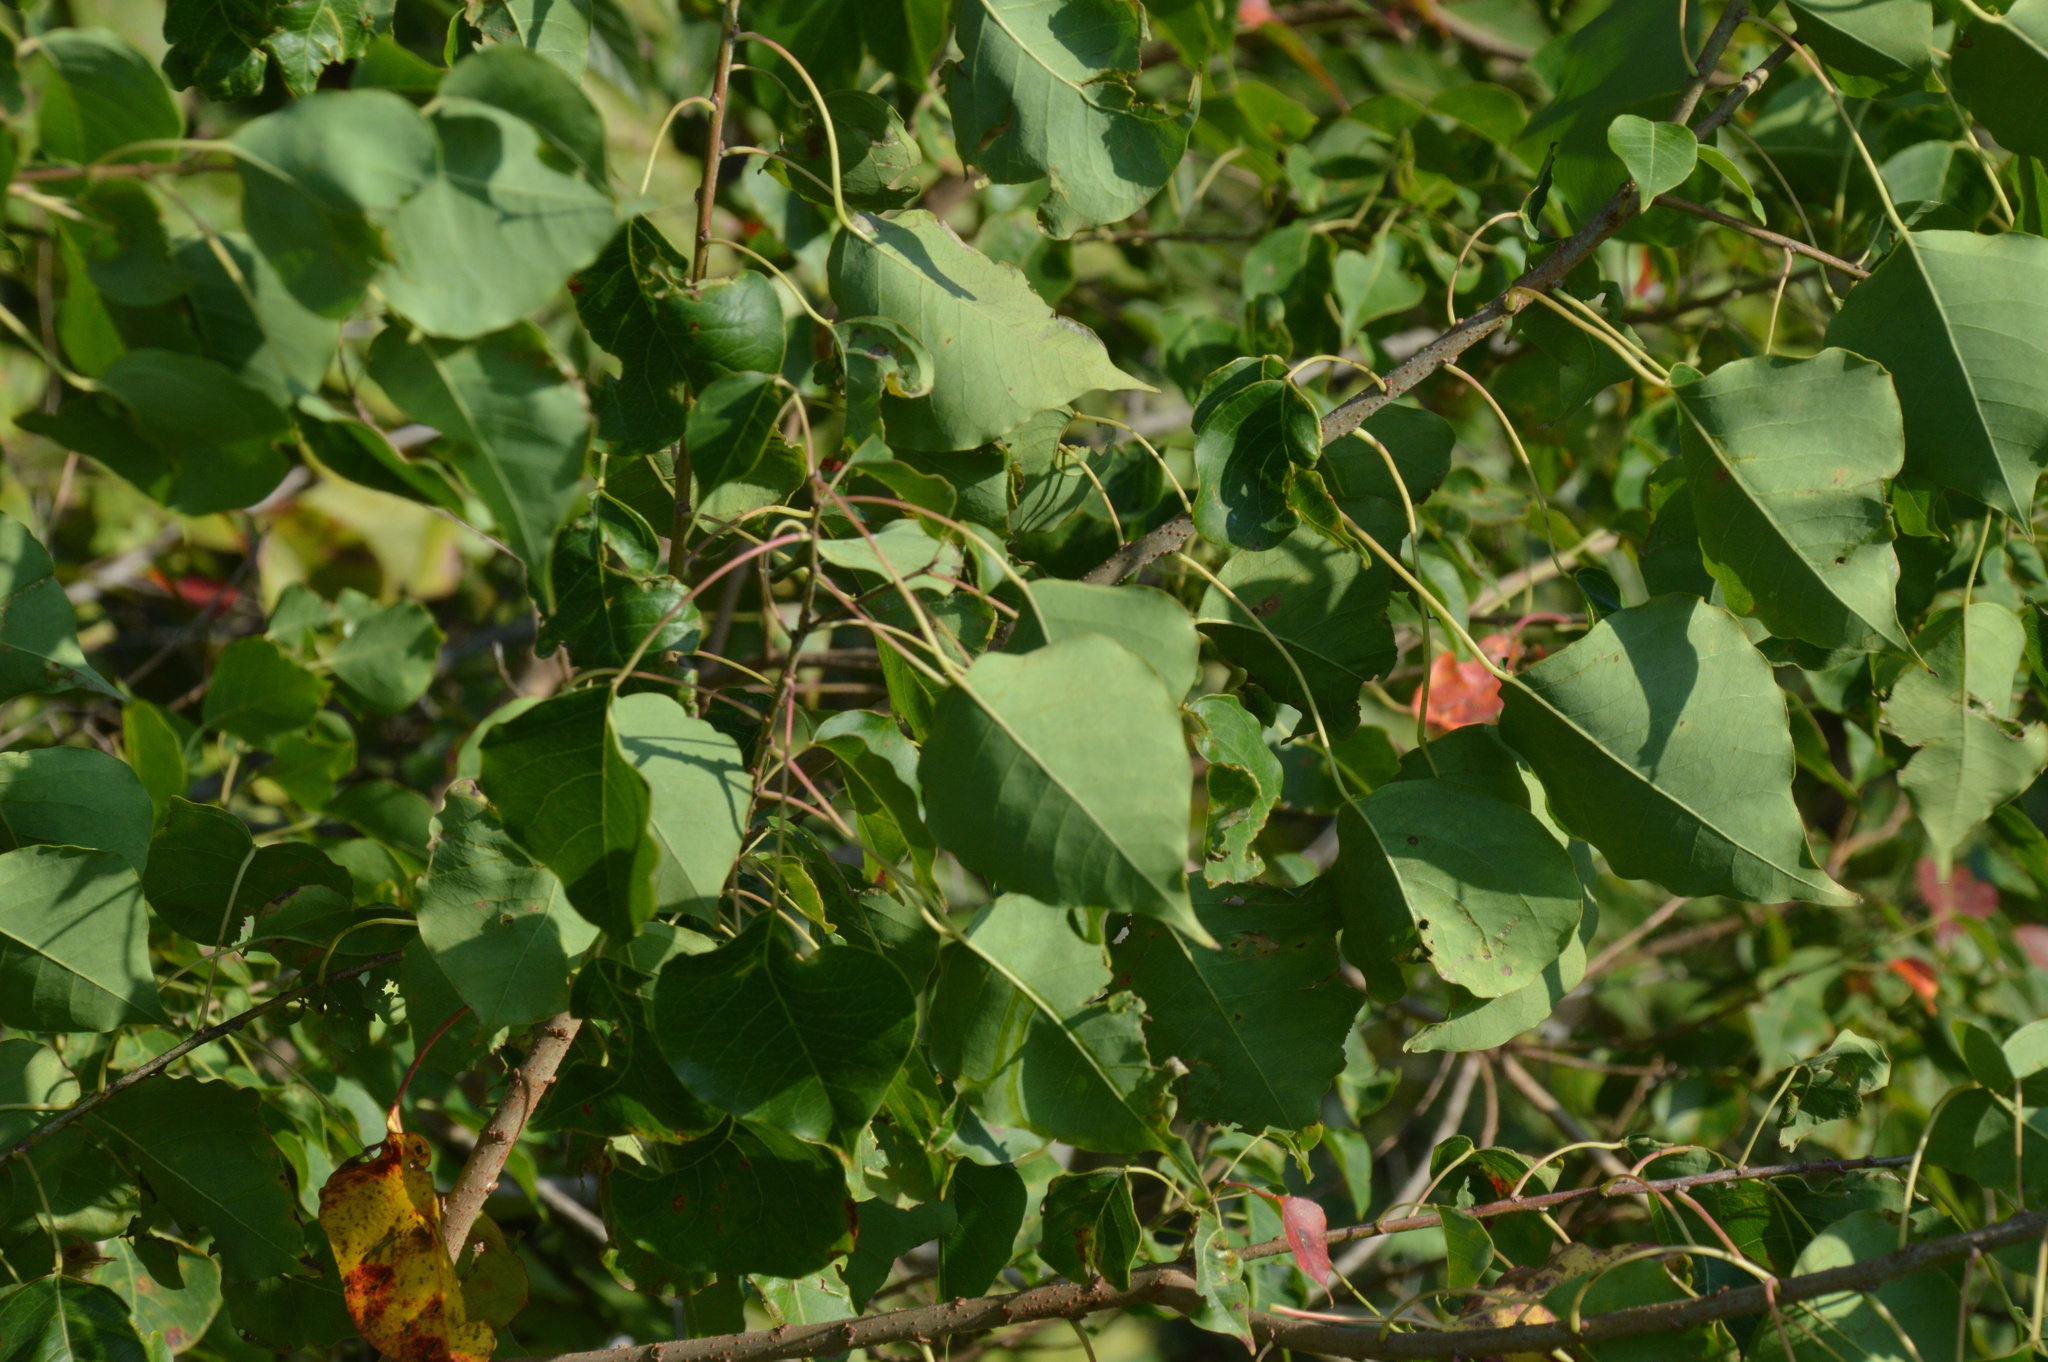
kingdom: Plantae
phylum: Tracheophyta
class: Magnoliopsida
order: Malpighiales
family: Euphorbiaceae
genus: Triadica
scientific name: Triadica sebifera
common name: Chinese tallow
